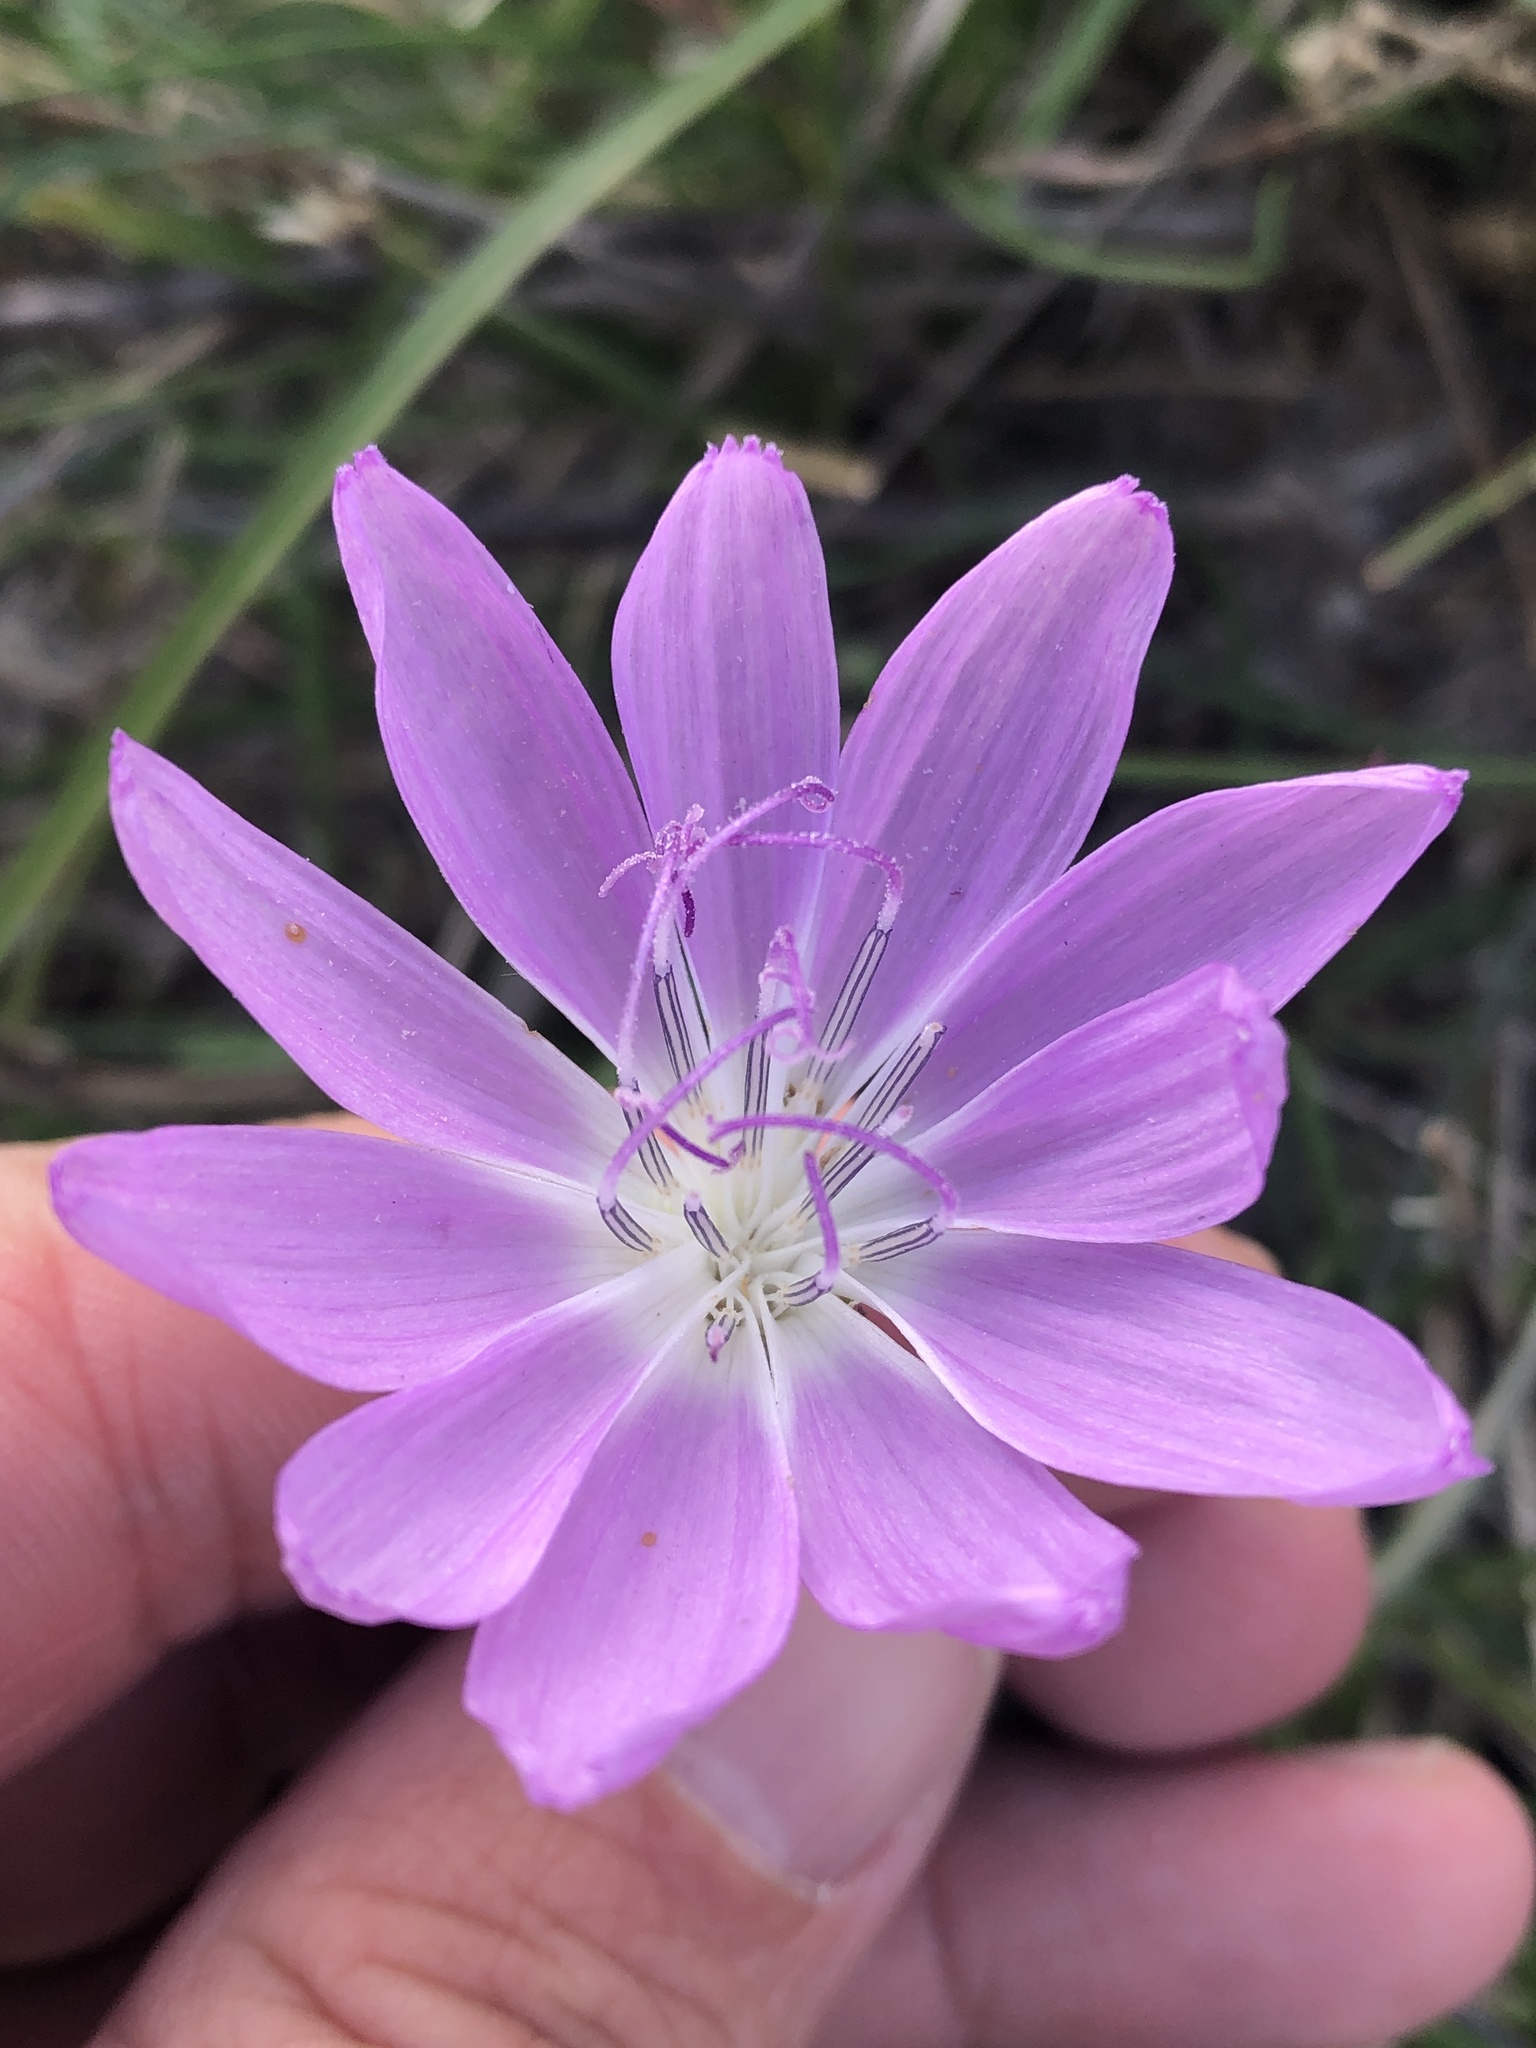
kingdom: Plantae
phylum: Tracheophyta
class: Magnoliopsida
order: Asterales
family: Asteraceae
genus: Lygodesmia
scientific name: Lygodesmia texana
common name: Texas skeleton-plant
